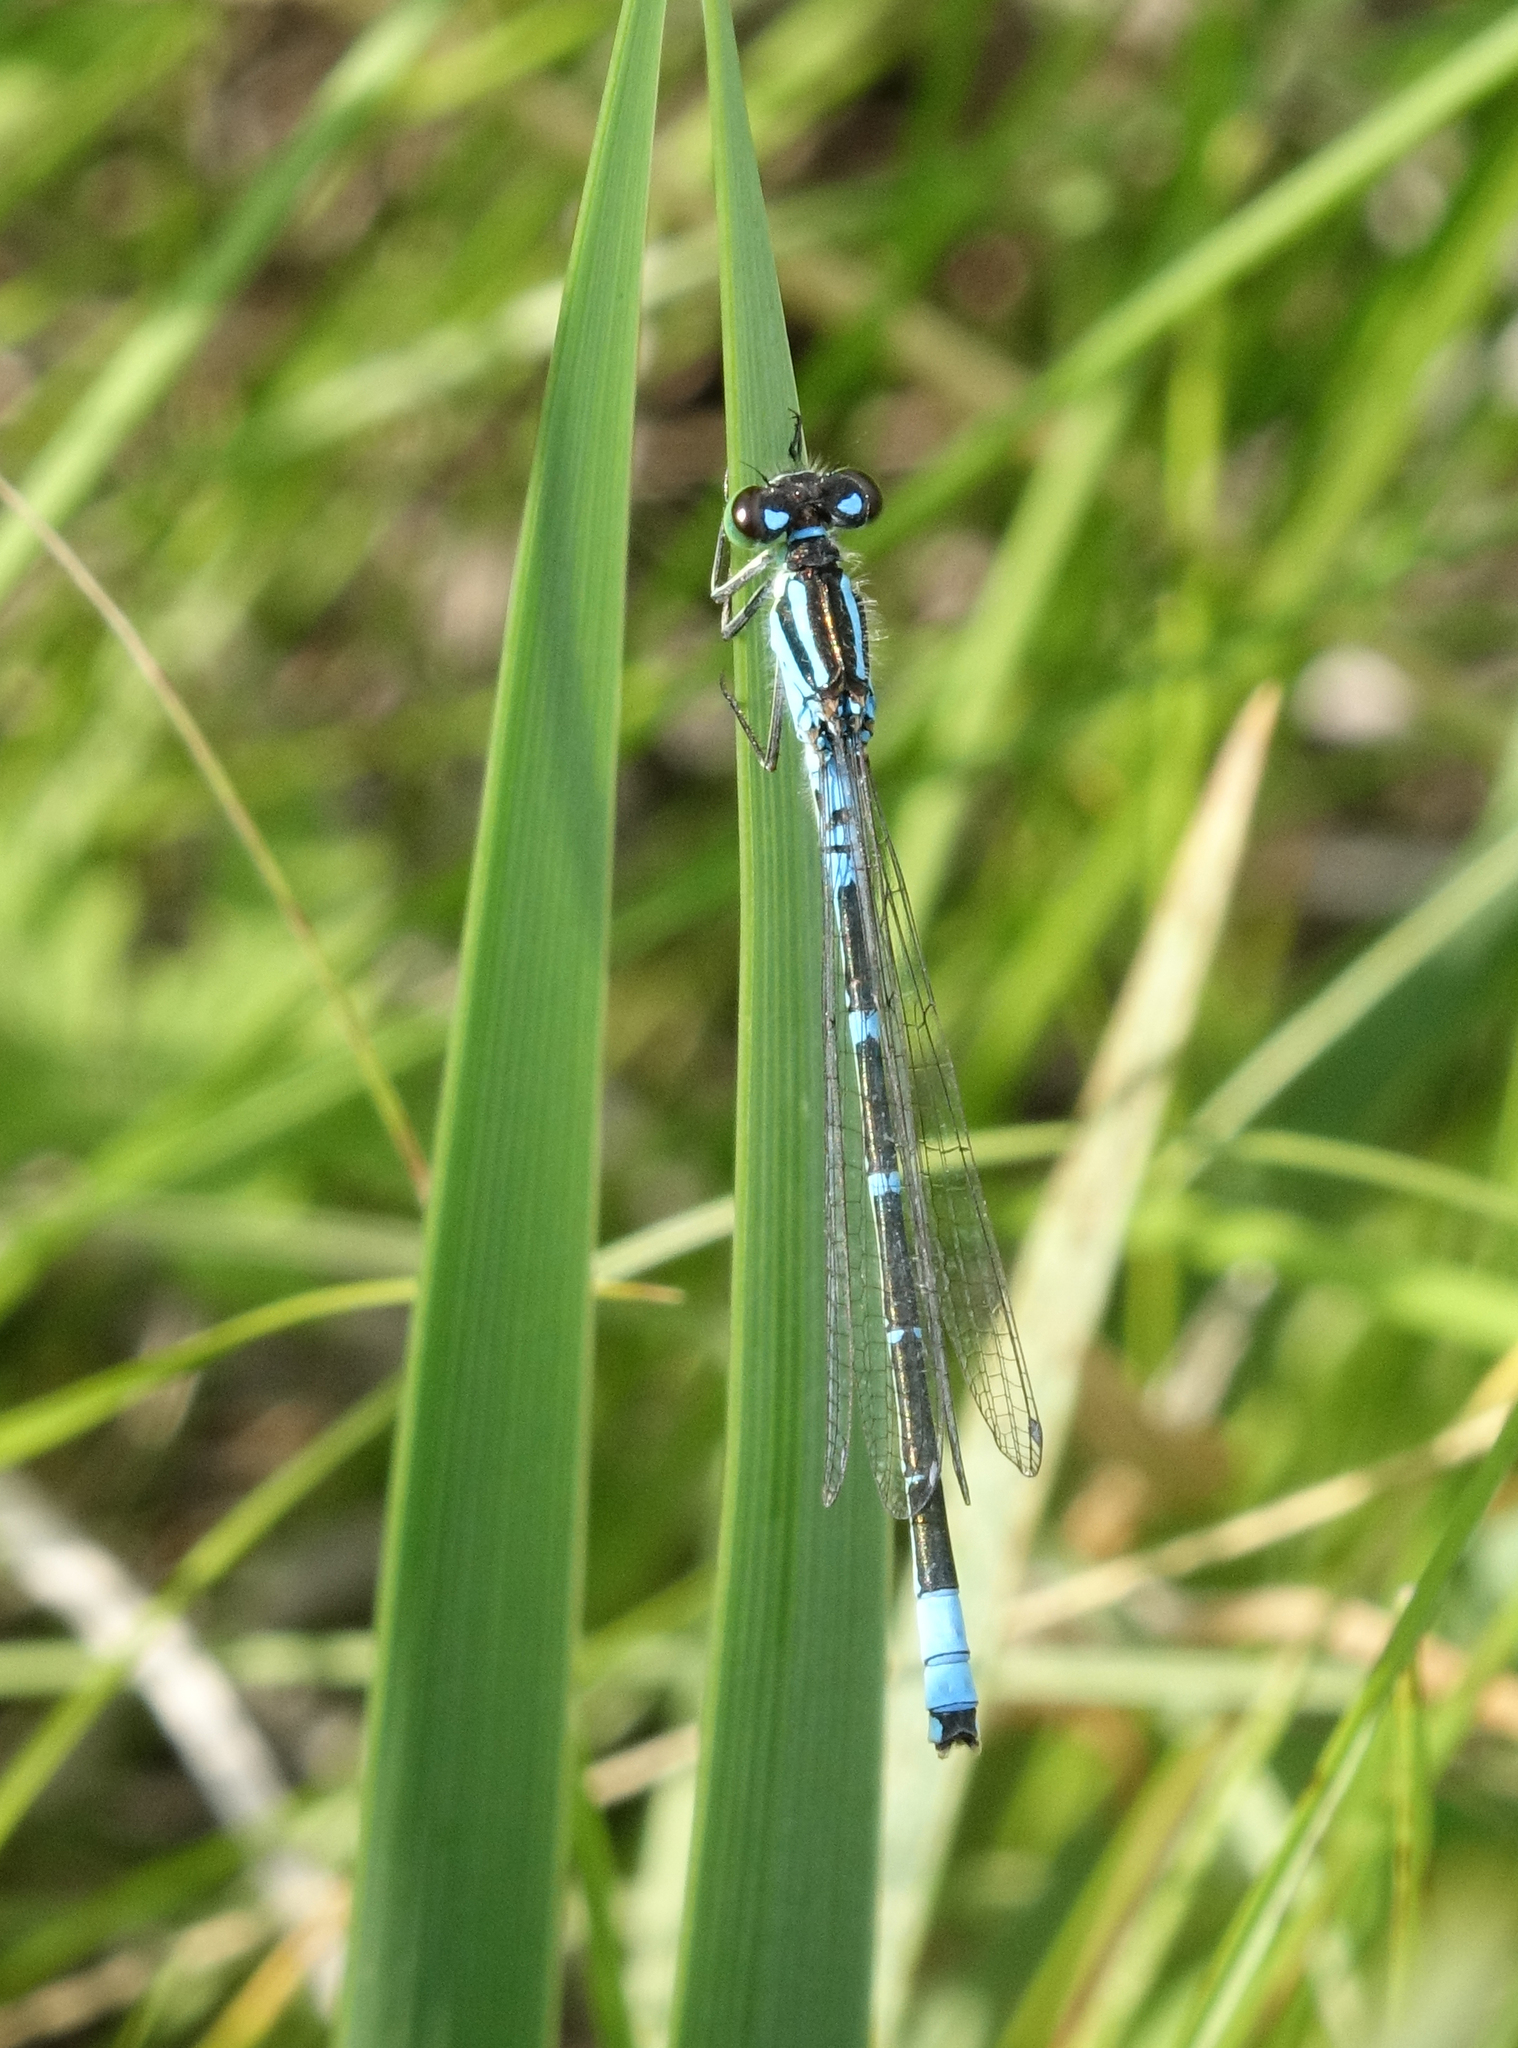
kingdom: Animalia
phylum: Arthropoda
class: Insecta
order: Odonata
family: Coenagrionidae
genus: Coenagrion
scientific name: Coenagrion lunulatum
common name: Irish damselfly
